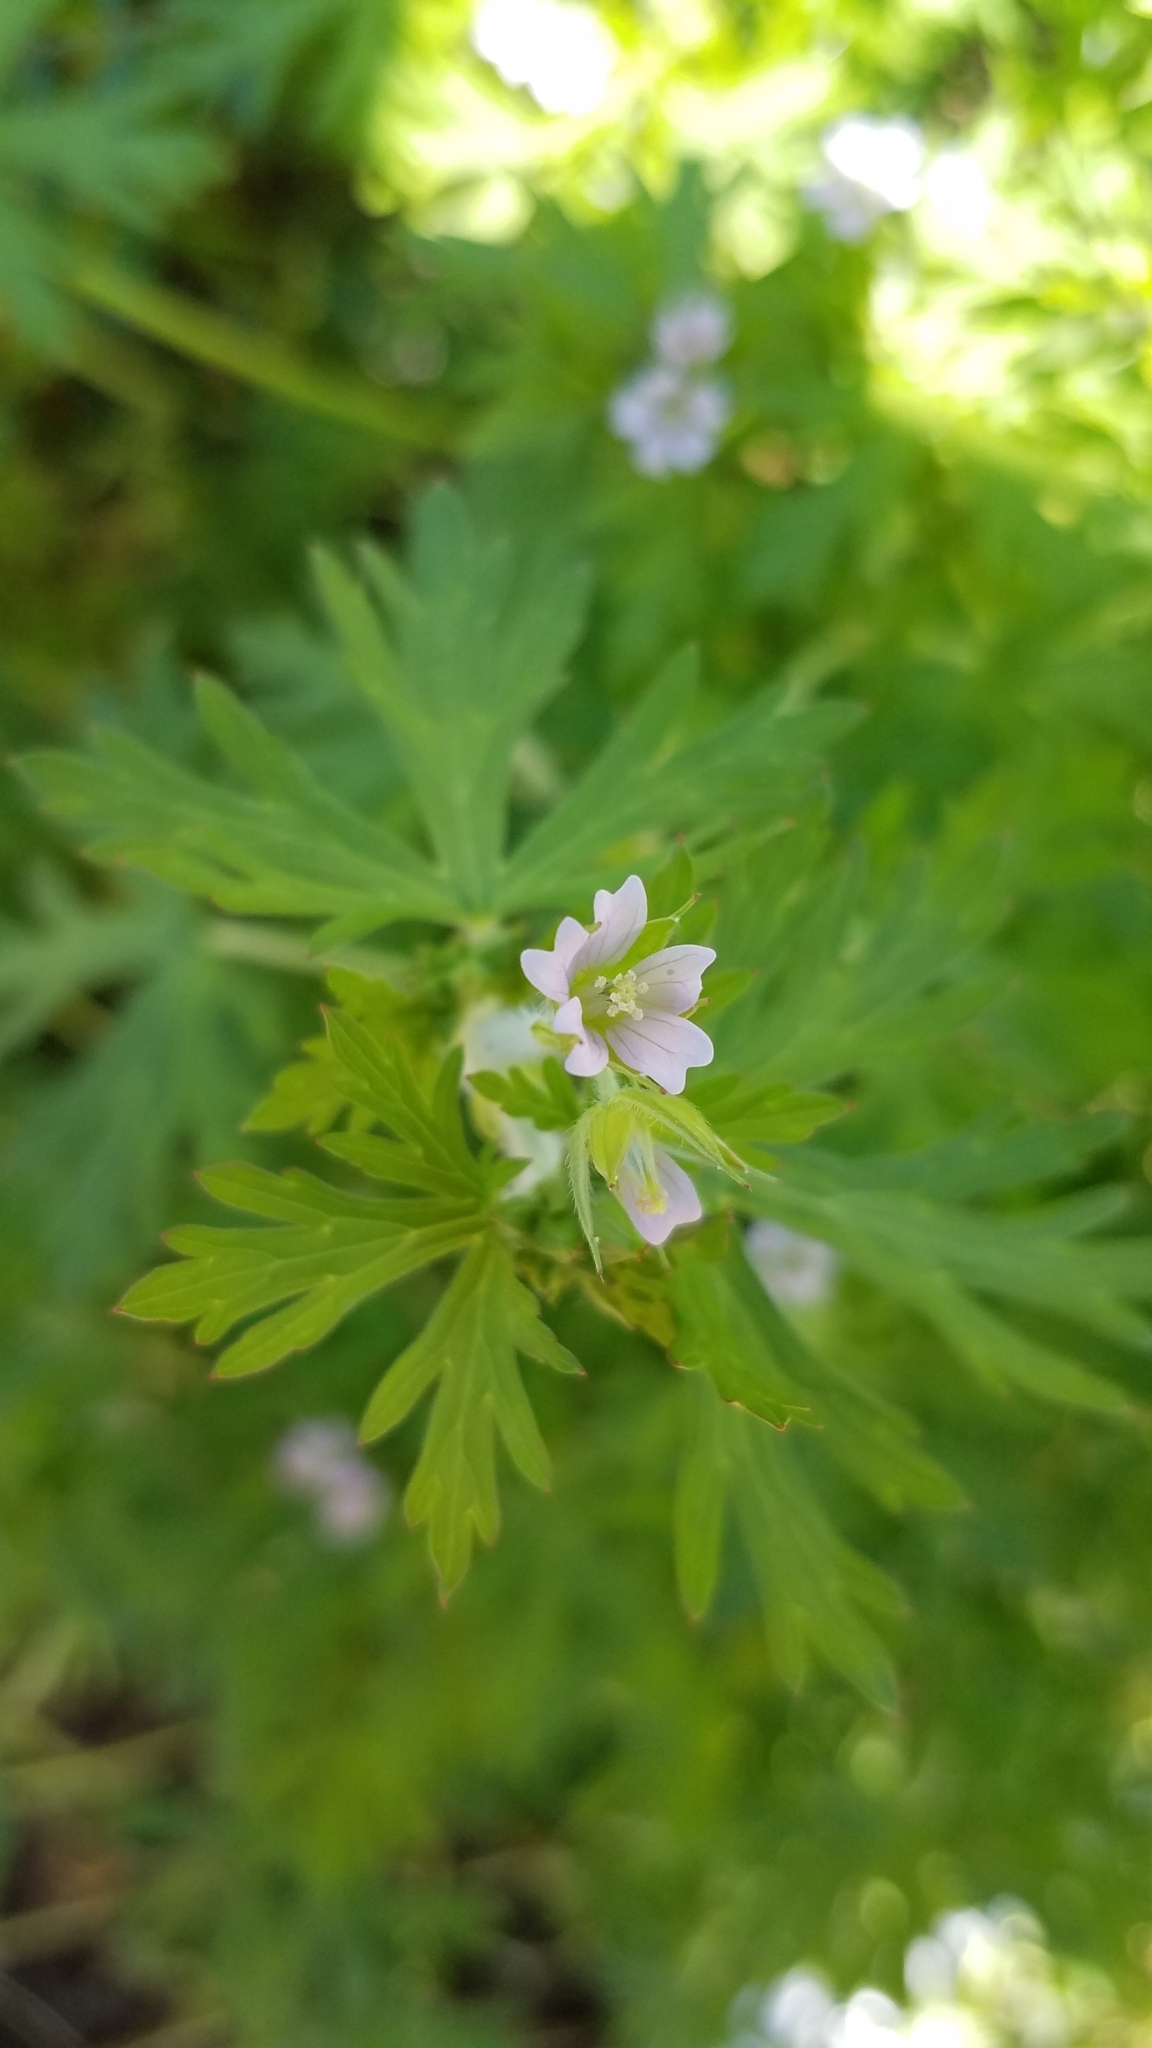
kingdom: Plantae
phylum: Tracheophyta
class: Magnoliopsida
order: Geraniales
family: Geraniaceae
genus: Geranium
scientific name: Geranium carolinianum
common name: Carolina crane's-bill
